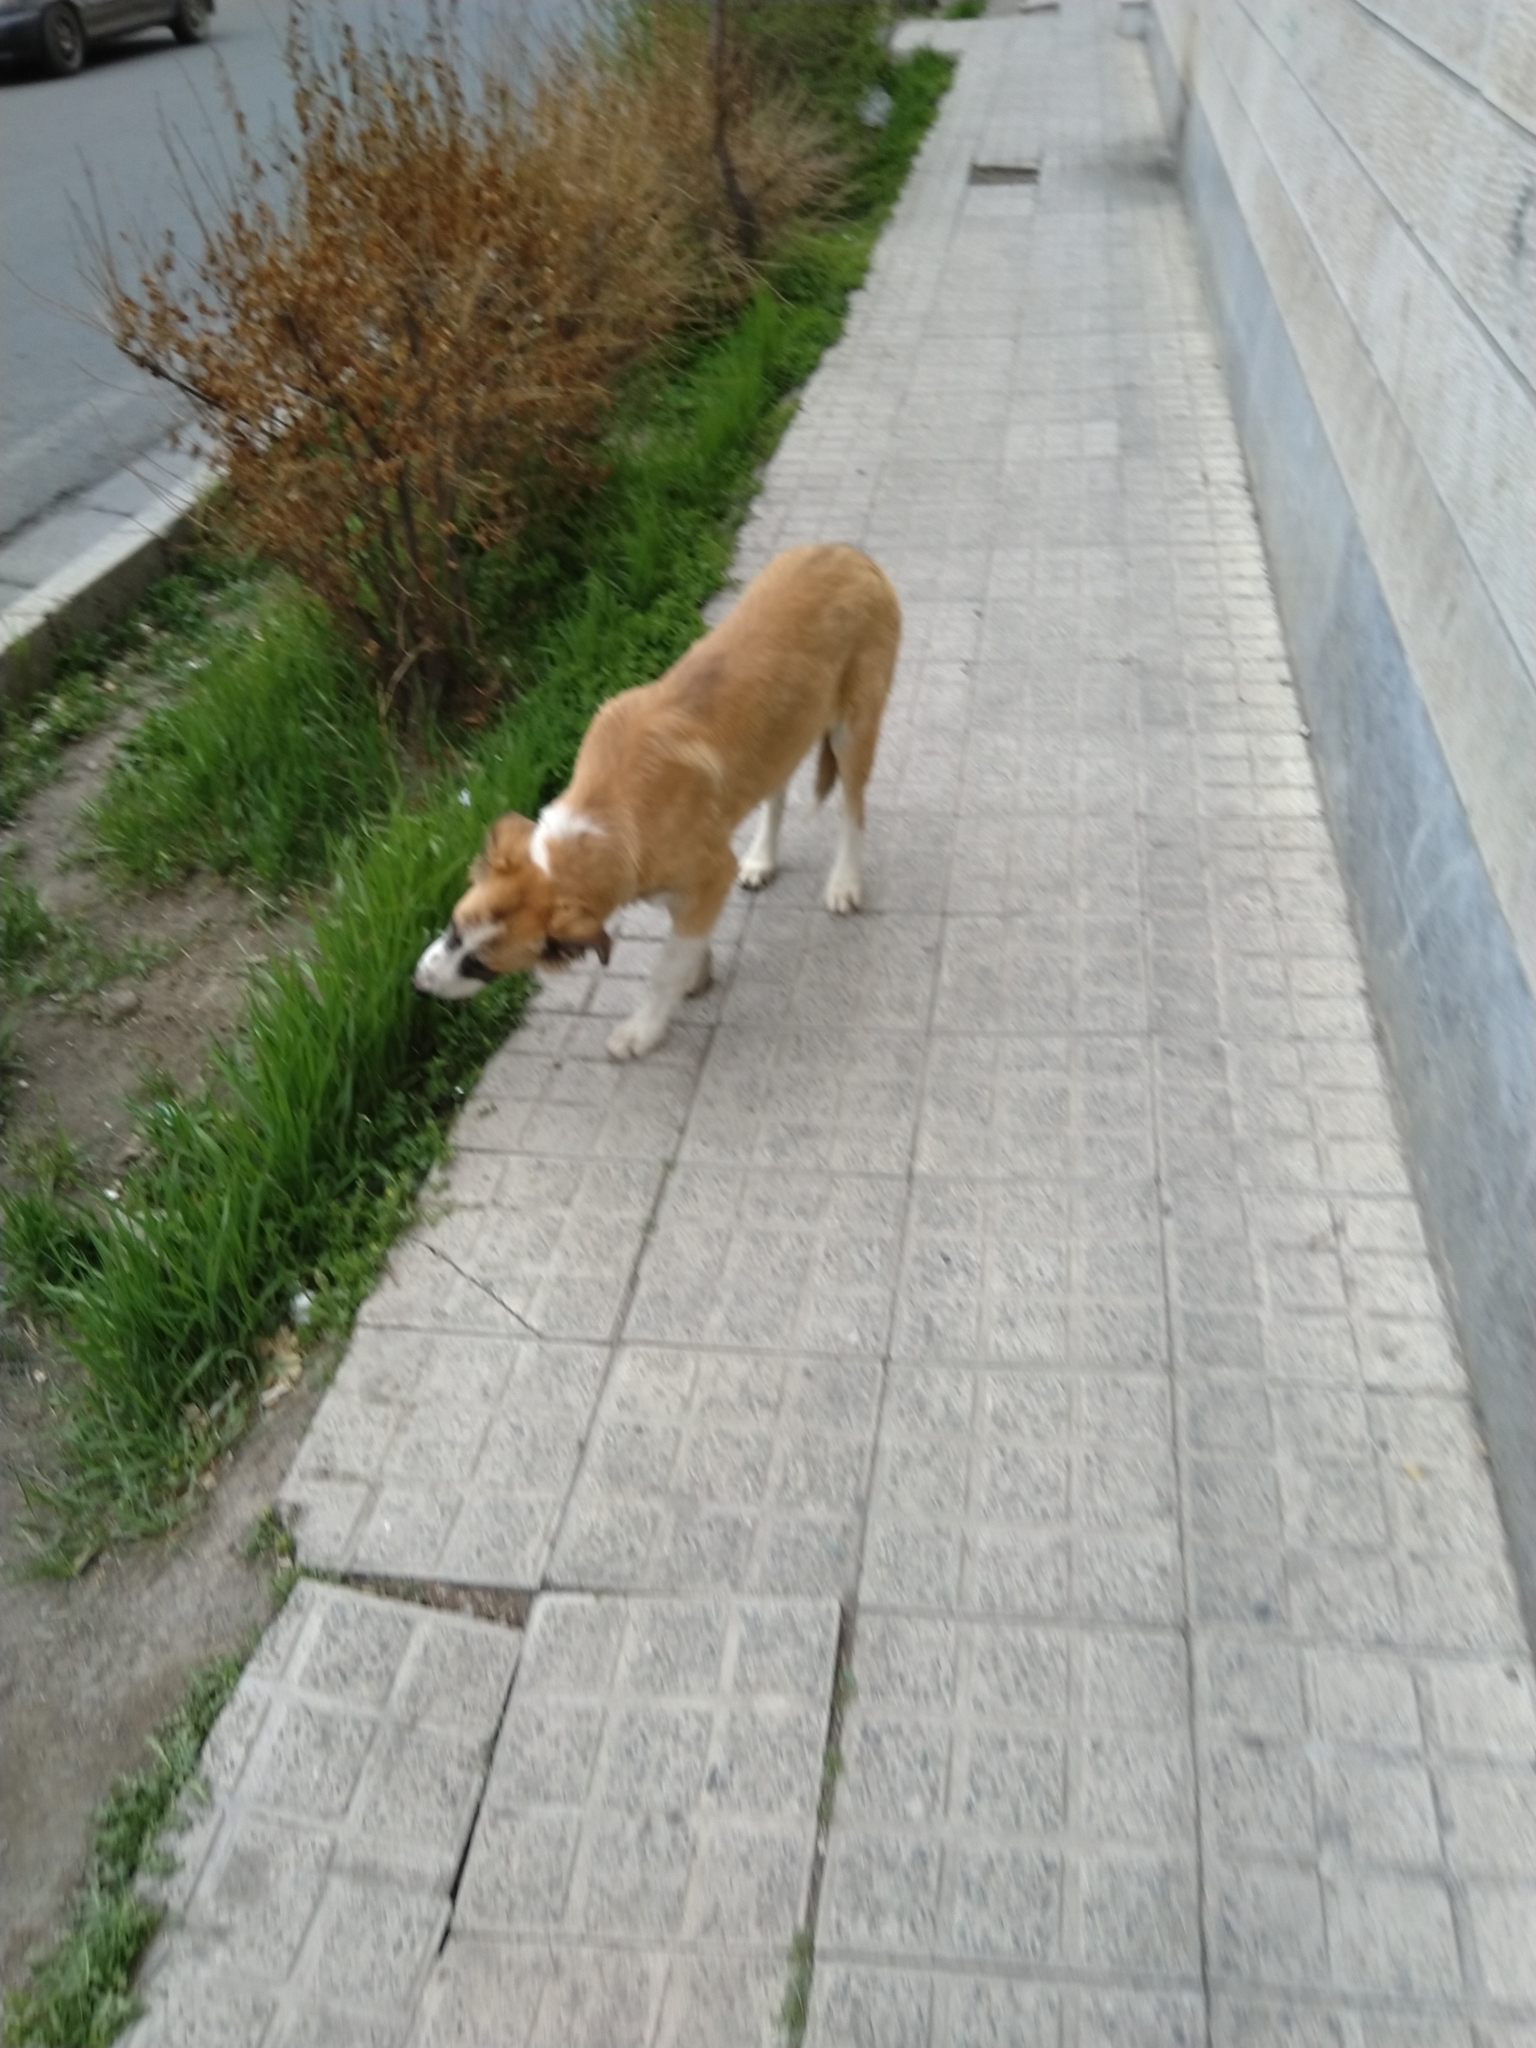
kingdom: Animalia
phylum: Chordata
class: Mammalia
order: Carnivora
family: Canidae
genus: Canis
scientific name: Canis lupus
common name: Gray wolf
